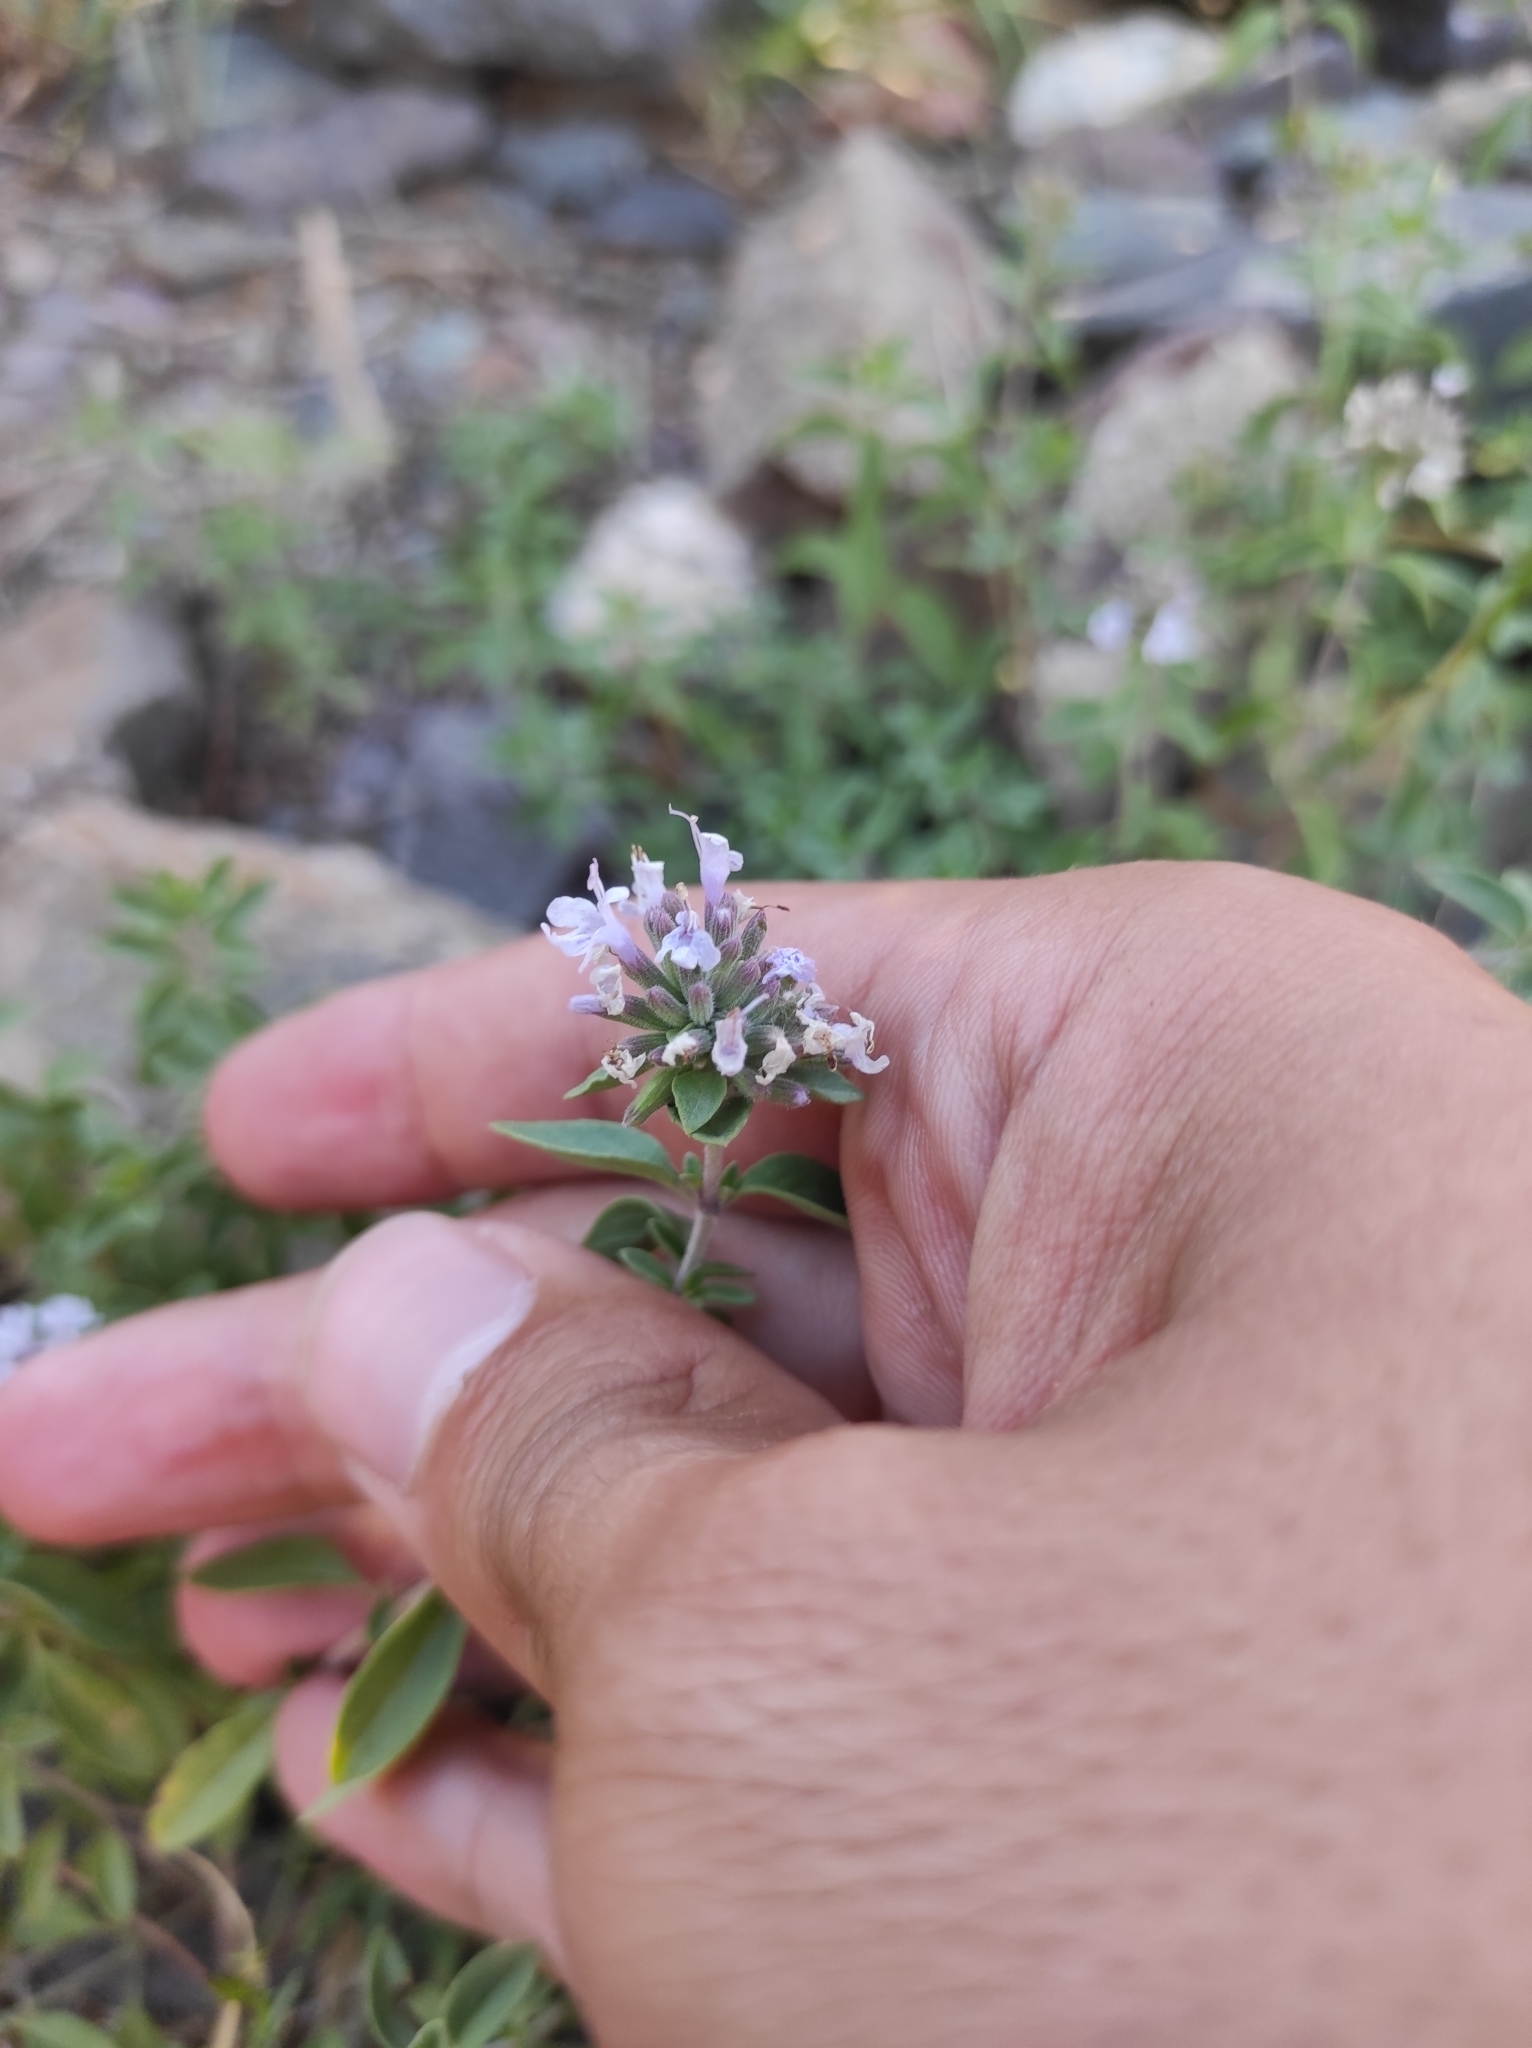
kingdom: Plantae
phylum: Tracheophyta
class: Magnoliopsida
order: Lamiales
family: Lamiaceae
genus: Ziziphora
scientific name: Ziziphora clinopodioides
